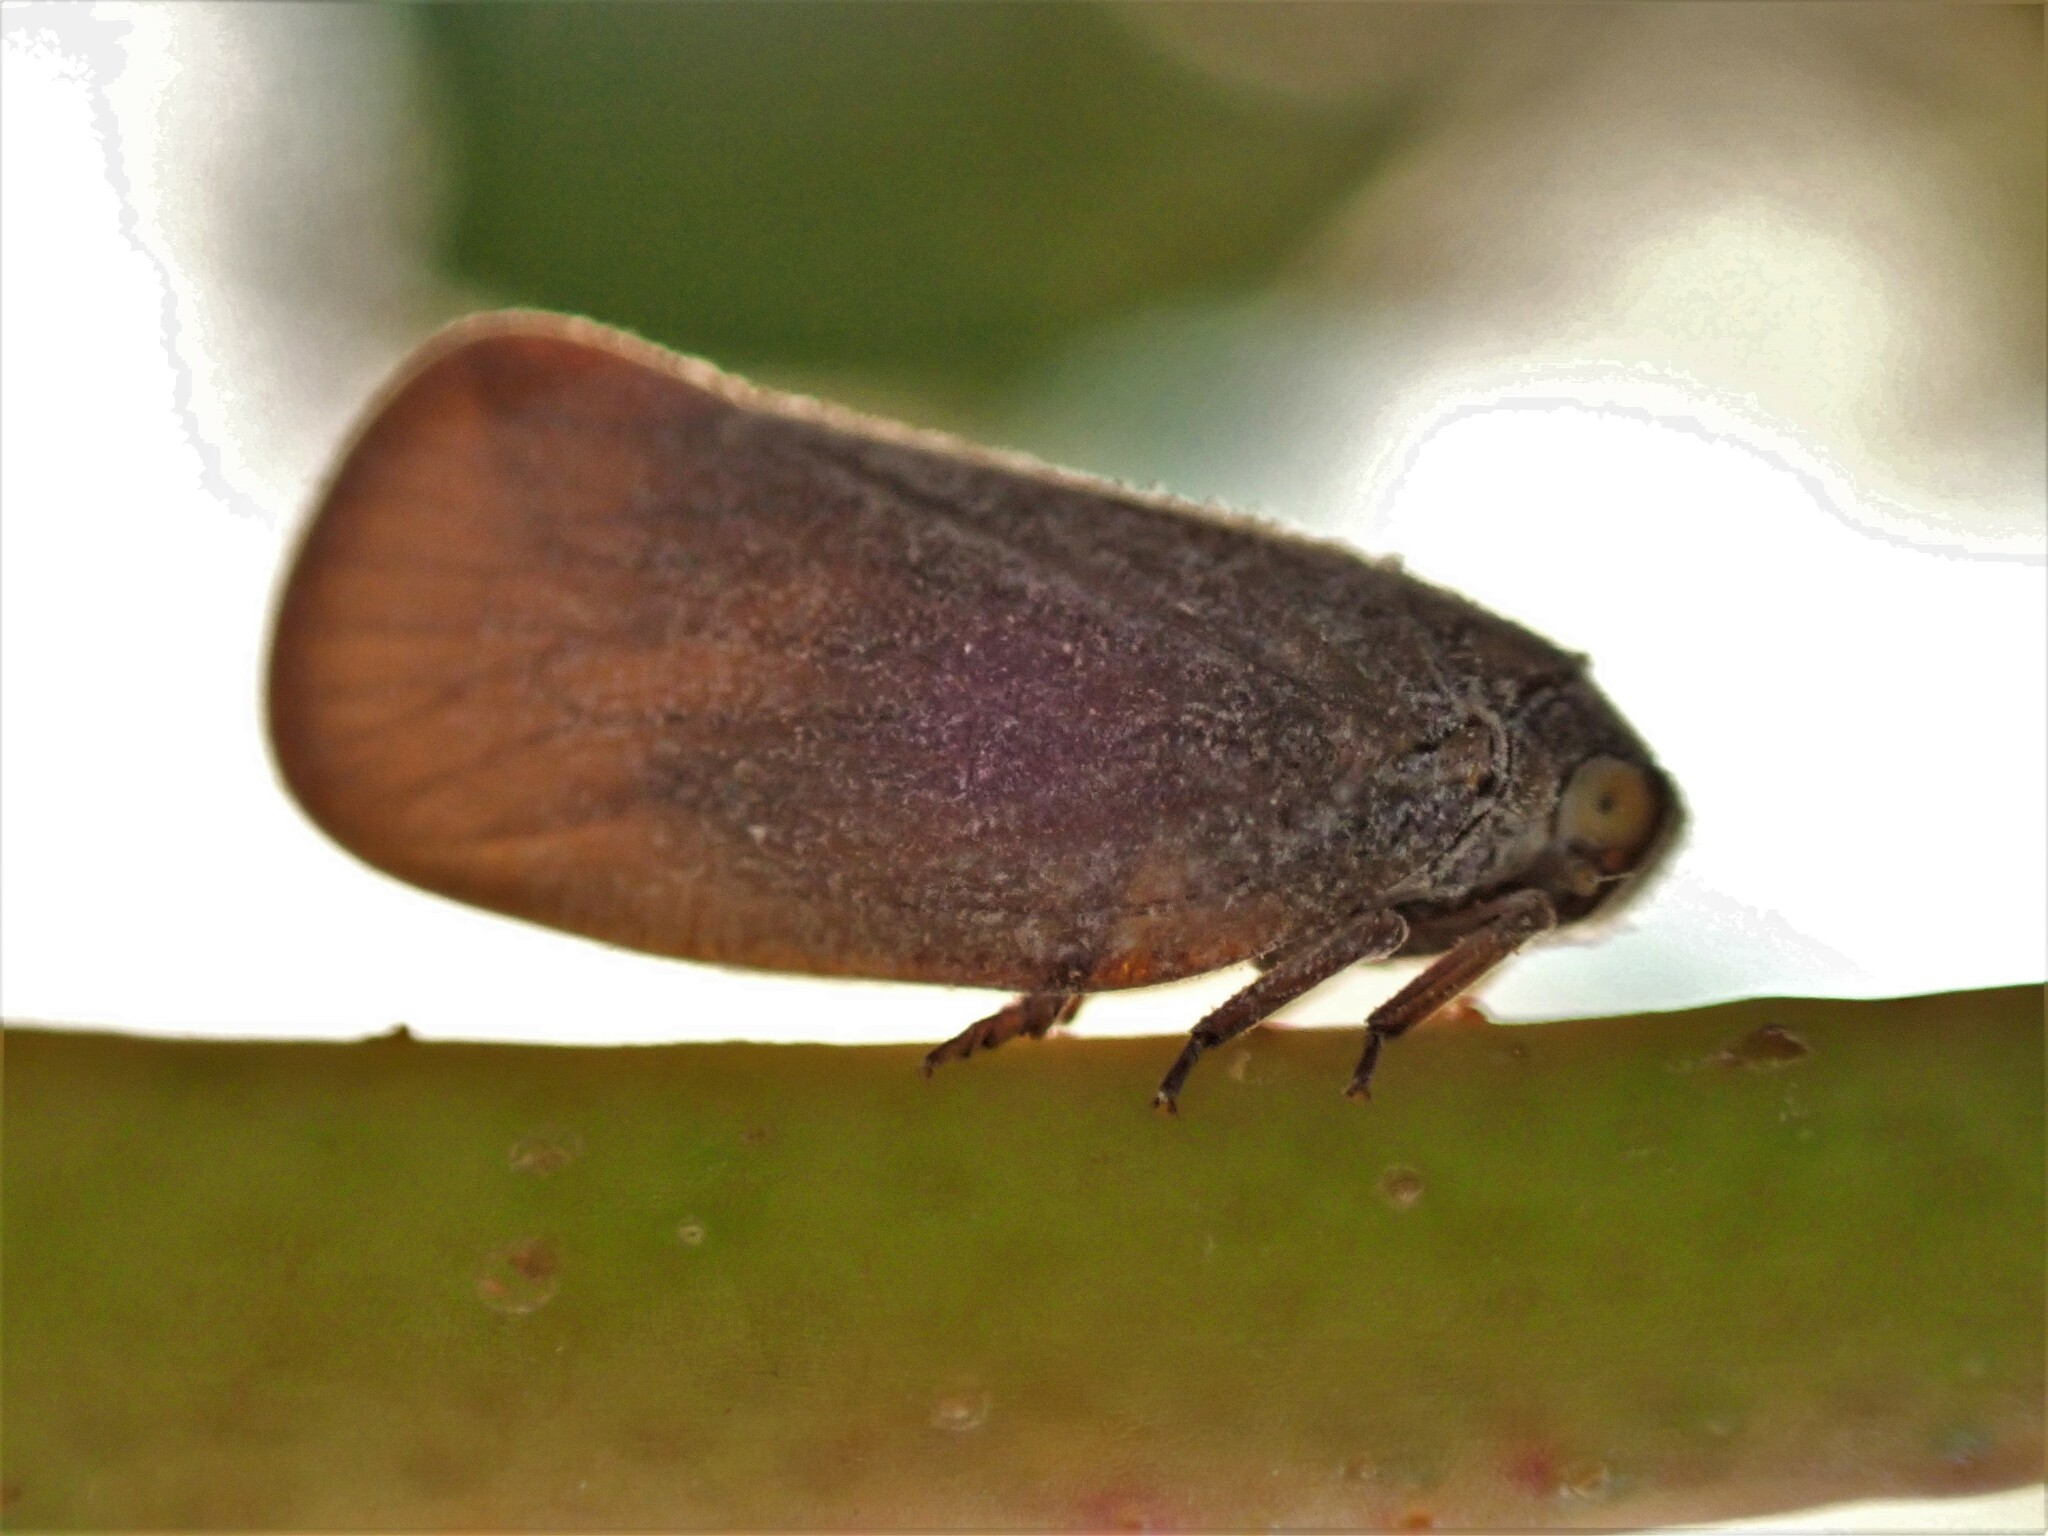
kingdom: Animalia
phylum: Arthropoda
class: Insecta
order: Hemiptera
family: Flatidae
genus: Anzora
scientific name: Anzora unicolor
